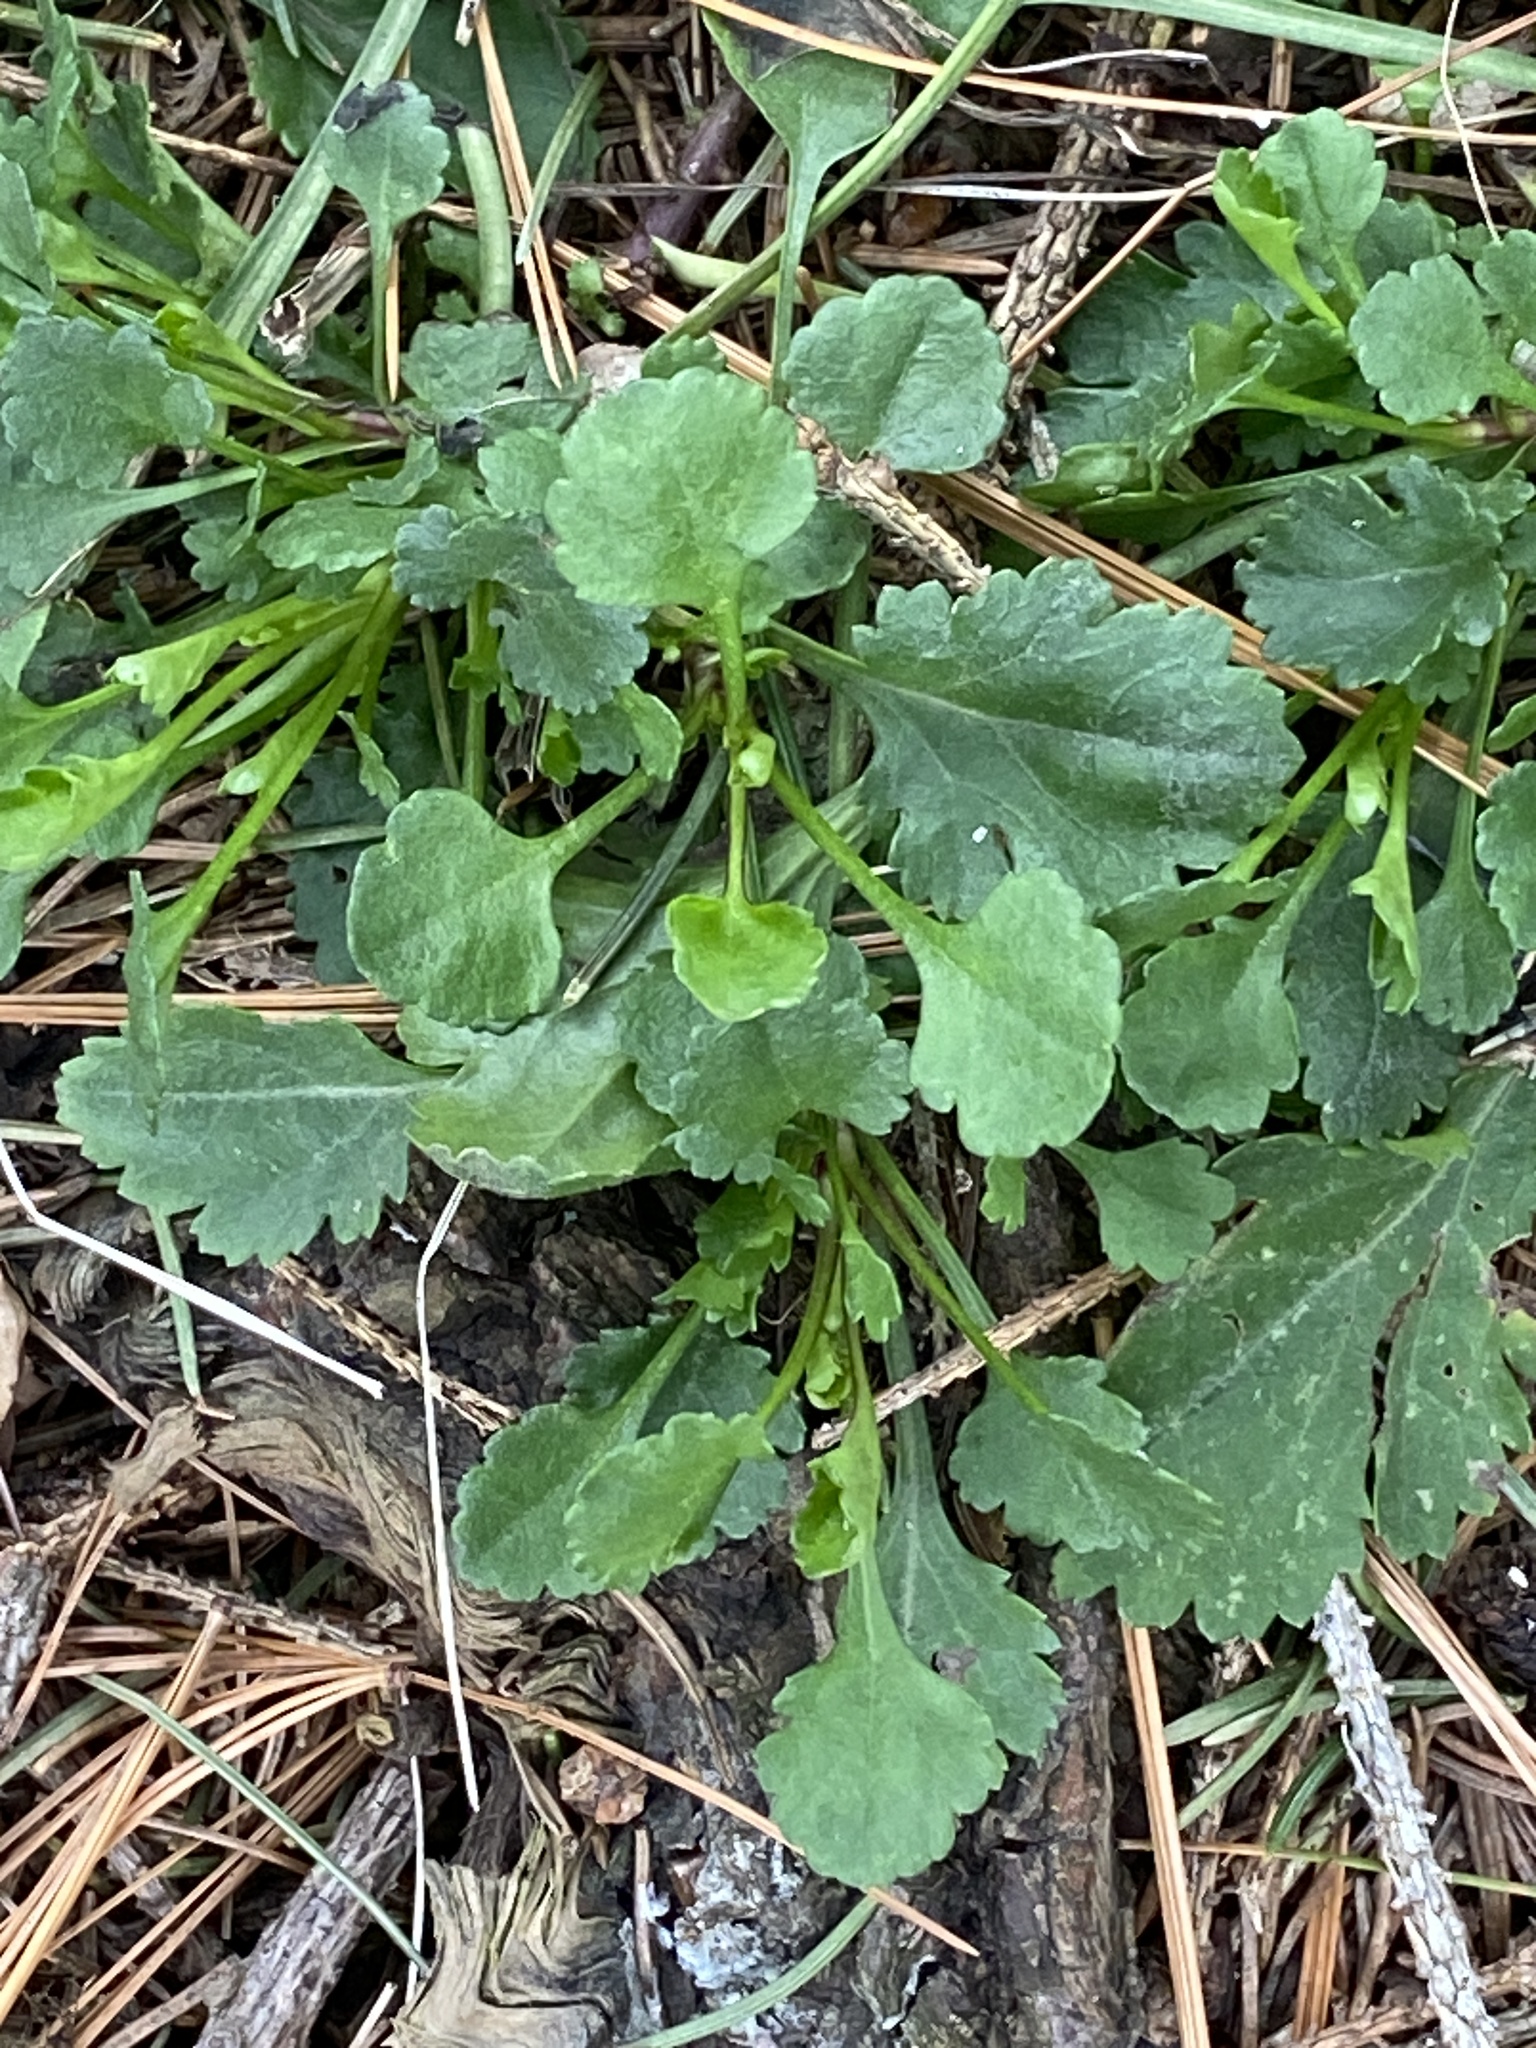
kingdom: Plantae
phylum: Tracheophyta
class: Magnoliopsida
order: Asterales
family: Asteraceae
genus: Leucanthemum
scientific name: Leucanthemum vulgare
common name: Oxeye daisy
